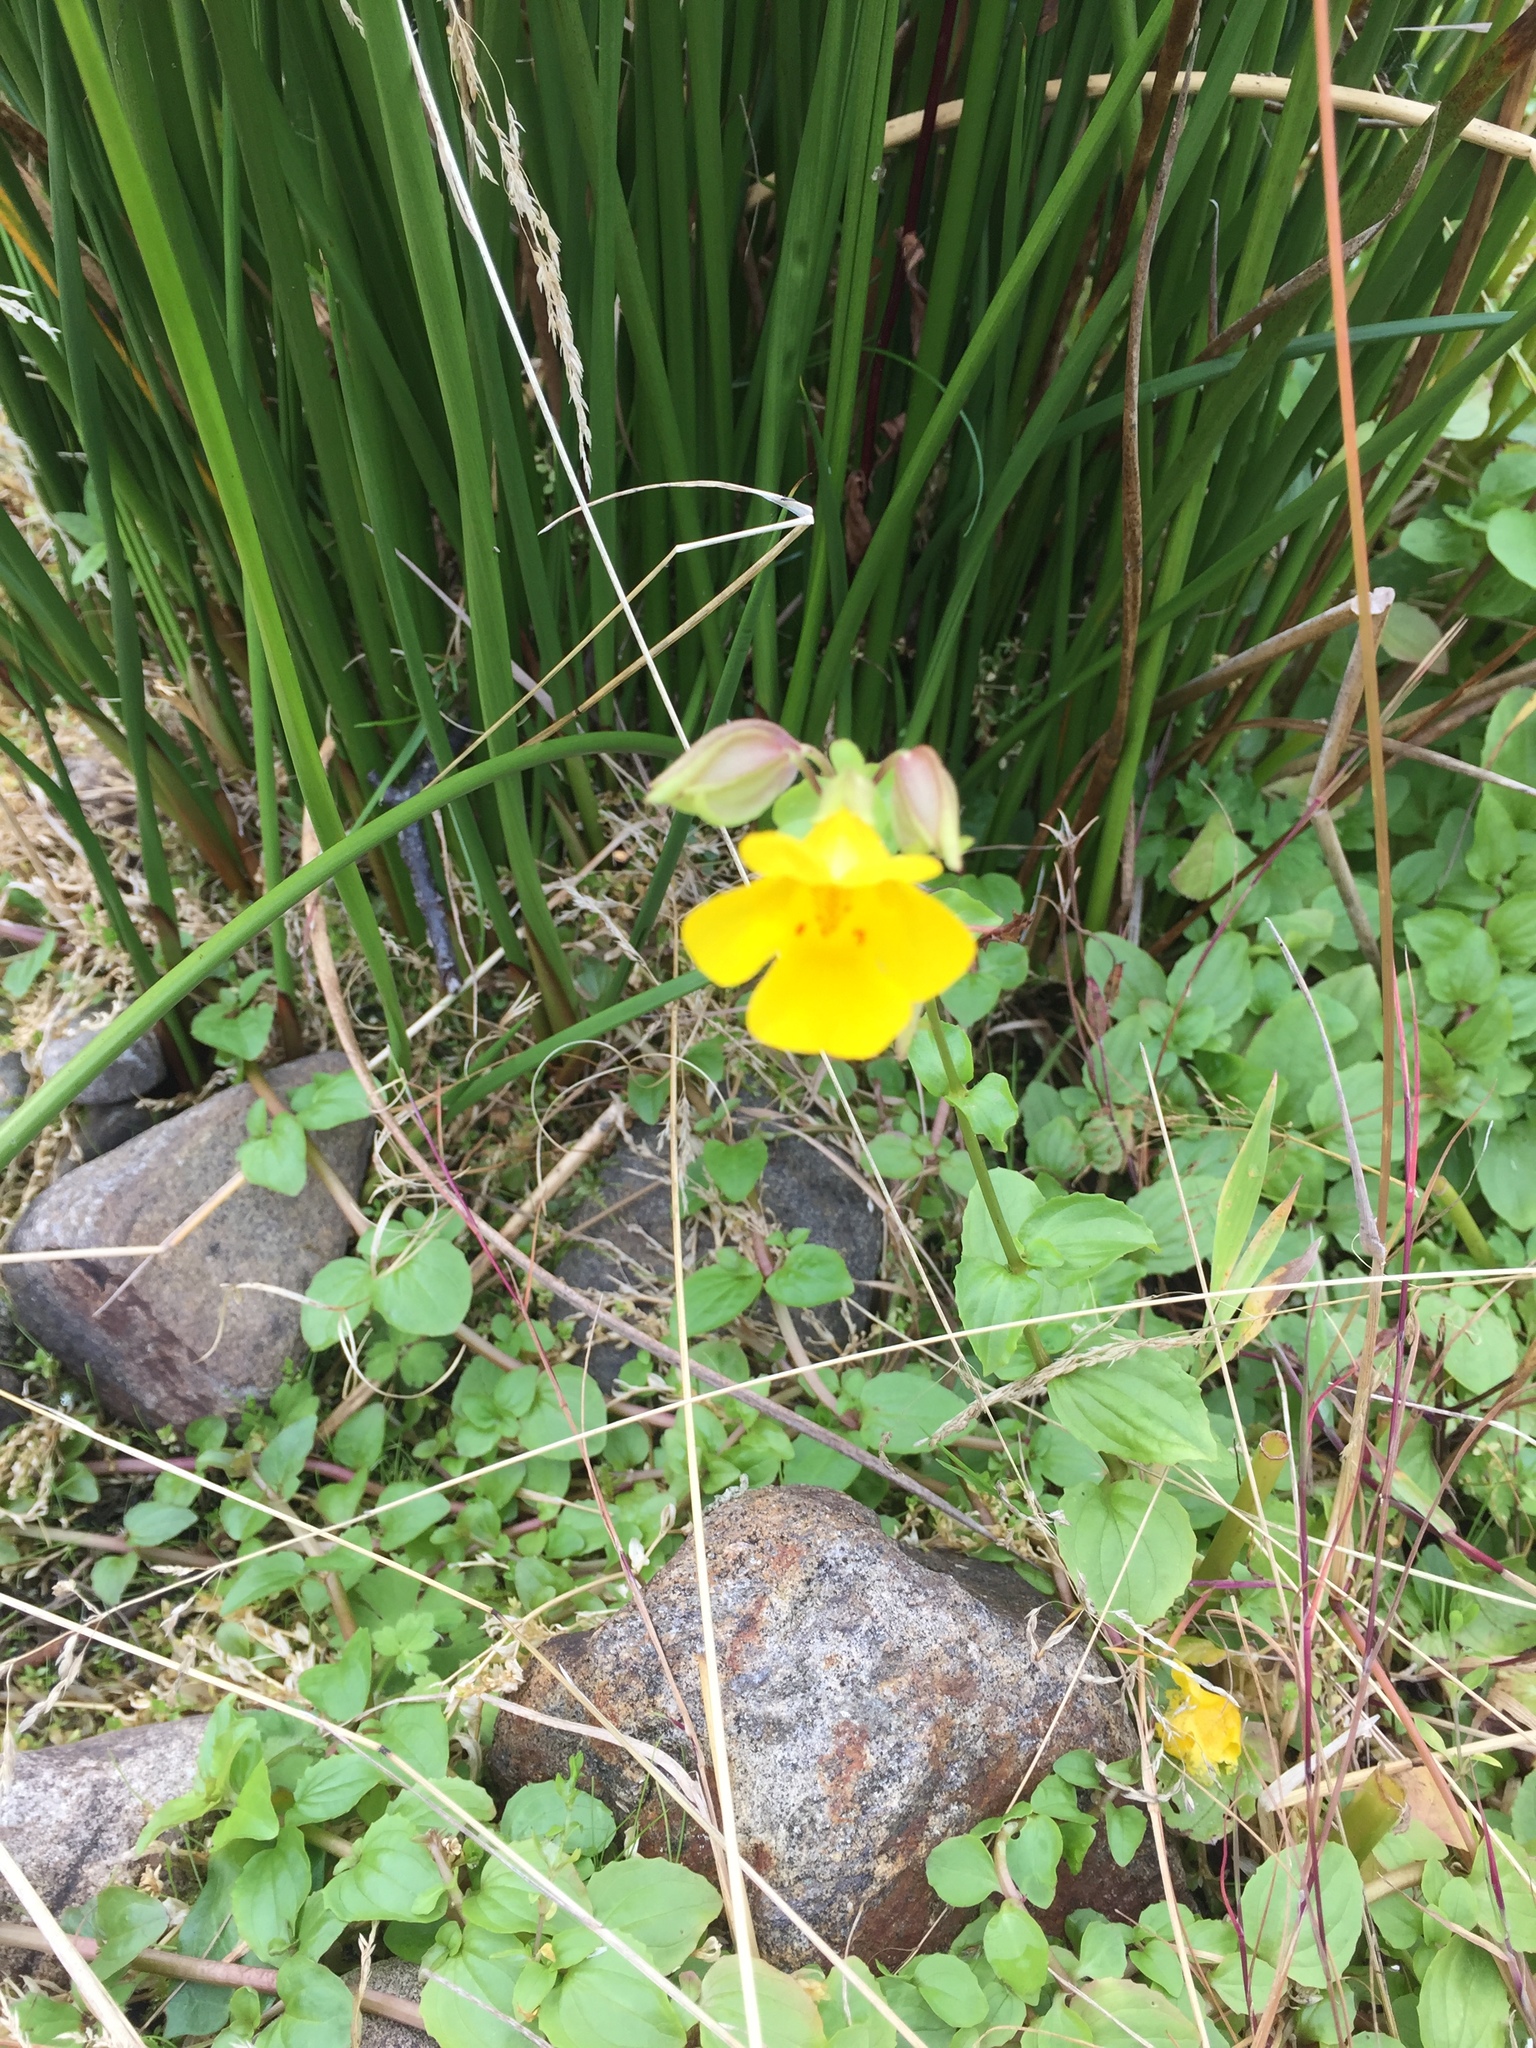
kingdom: Plantae
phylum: Tracheophyta
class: Magnoliopsida
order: Lamiales
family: Phrymaceae
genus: Erythranthe
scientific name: Erythranthe guttata
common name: Monkeyflower
